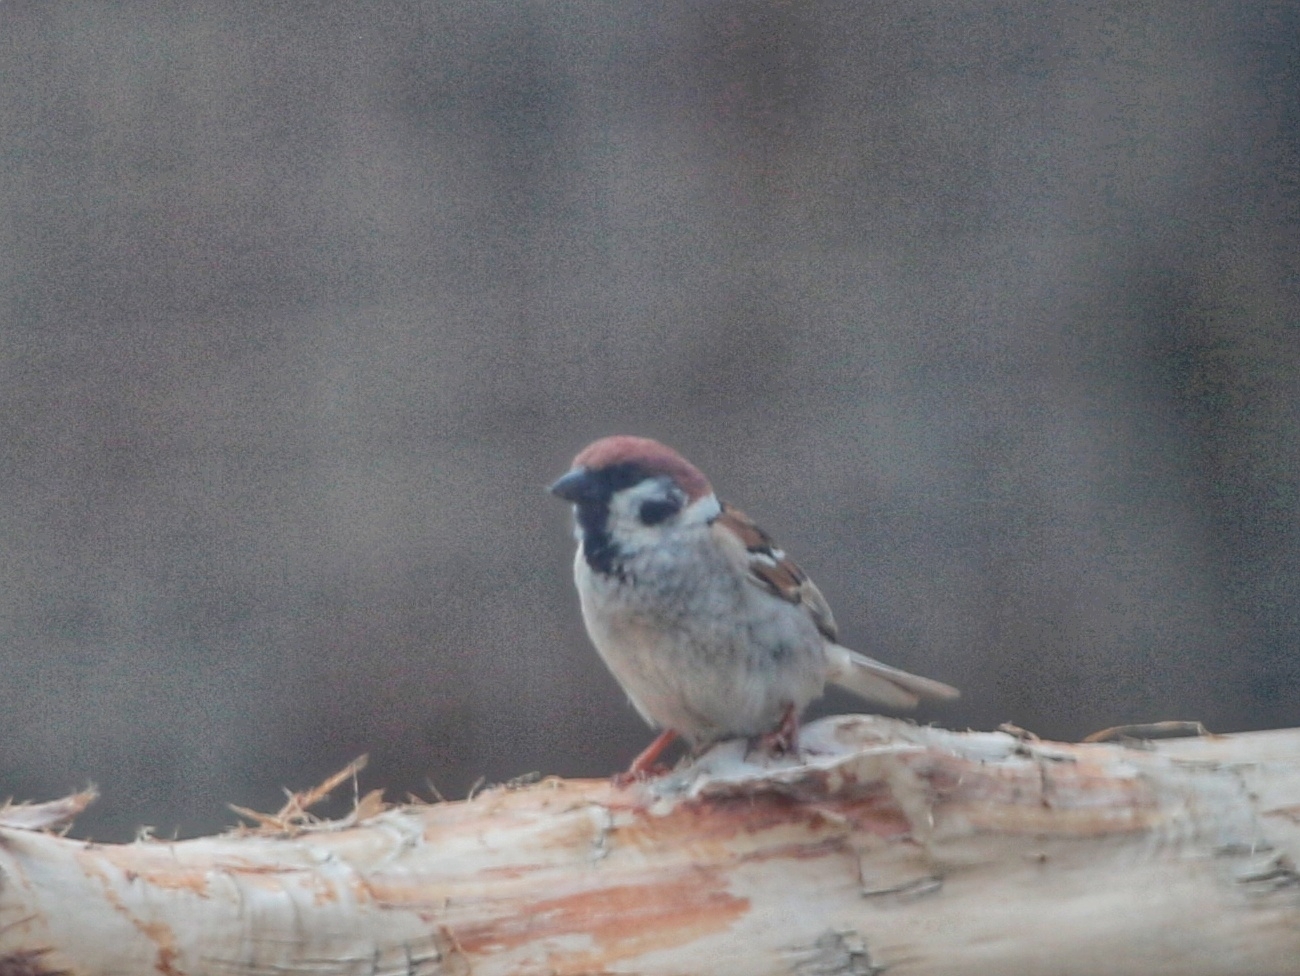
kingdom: Animalia
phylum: Chordata
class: Aves
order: Passeriformes
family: Passeridae
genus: Passer
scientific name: Passer montanus
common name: Eurasian tree sparrow
